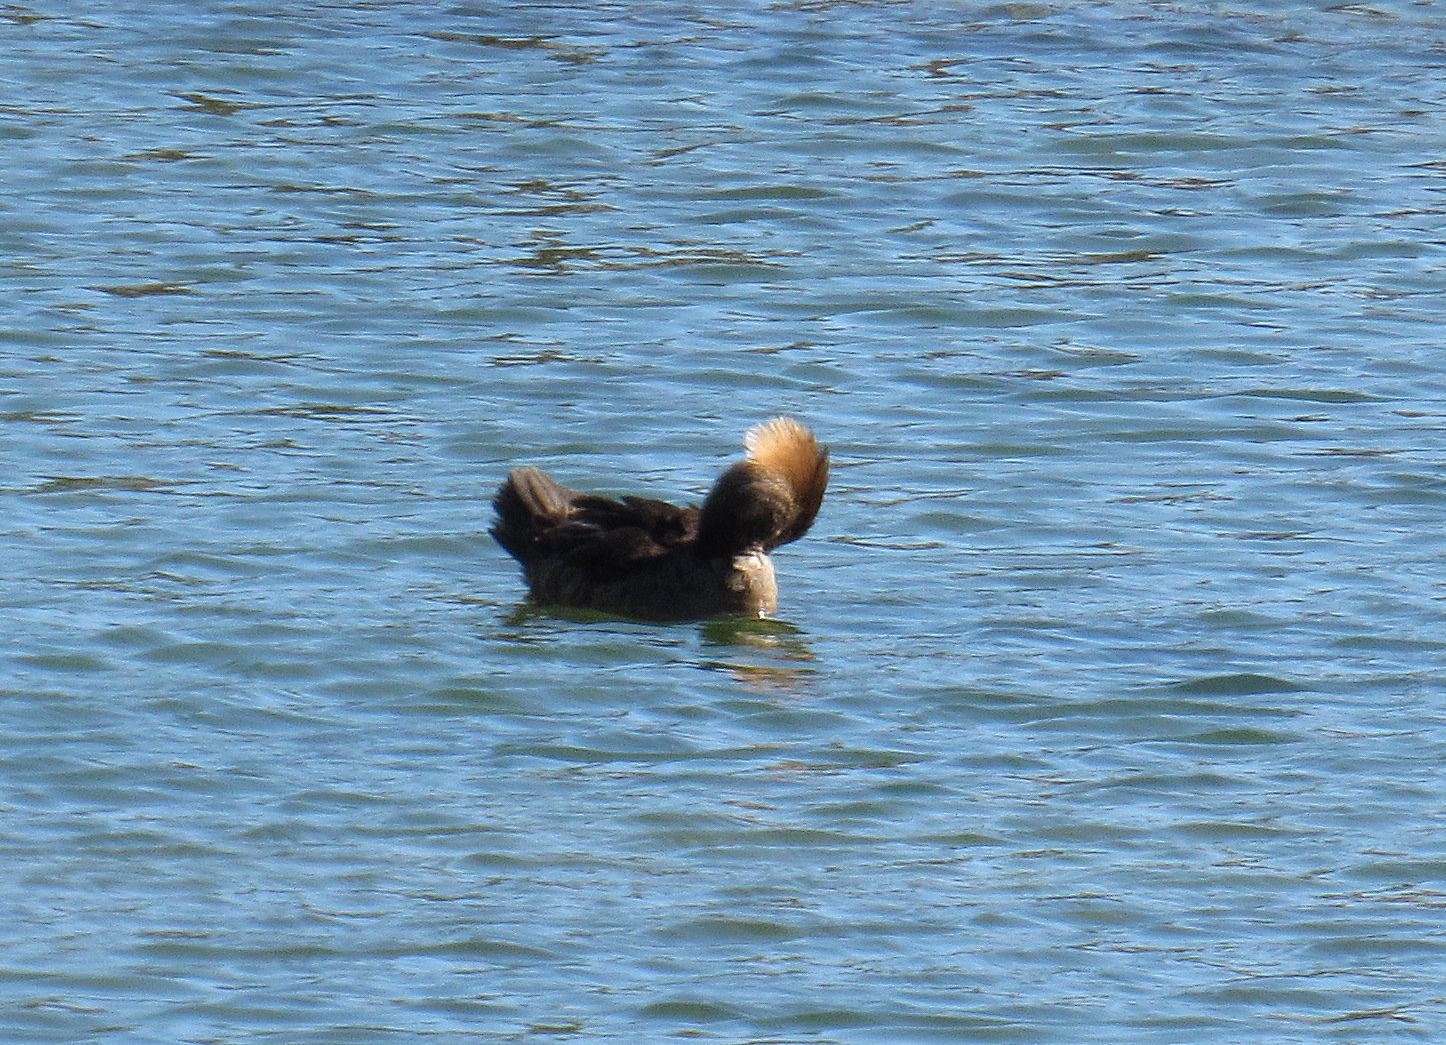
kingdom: Animalia
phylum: Chordata
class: Aves
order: Anseriformes
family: Anatidae
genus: Lophodytes
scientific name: Lophodytes cucullatus
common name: Hooded merganser
